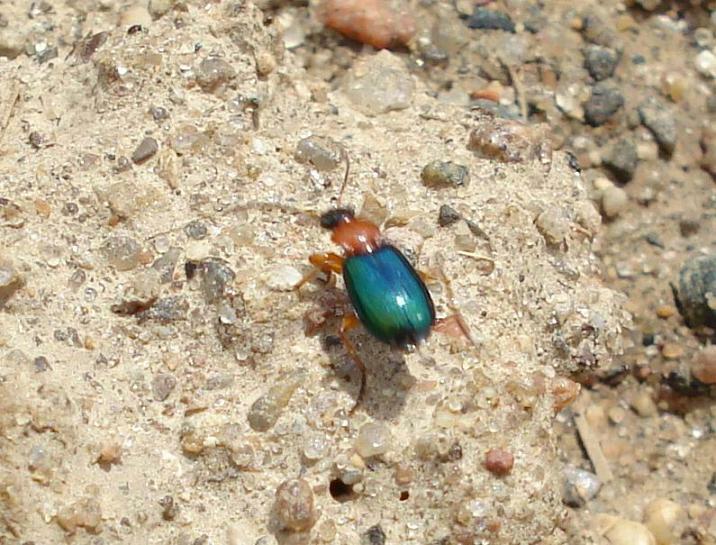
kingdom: Animalia
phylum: Arthropoda
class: Insecta
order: Coleoptera
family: Carabidae
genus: Lebia
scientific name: Lebia chlorocephala
